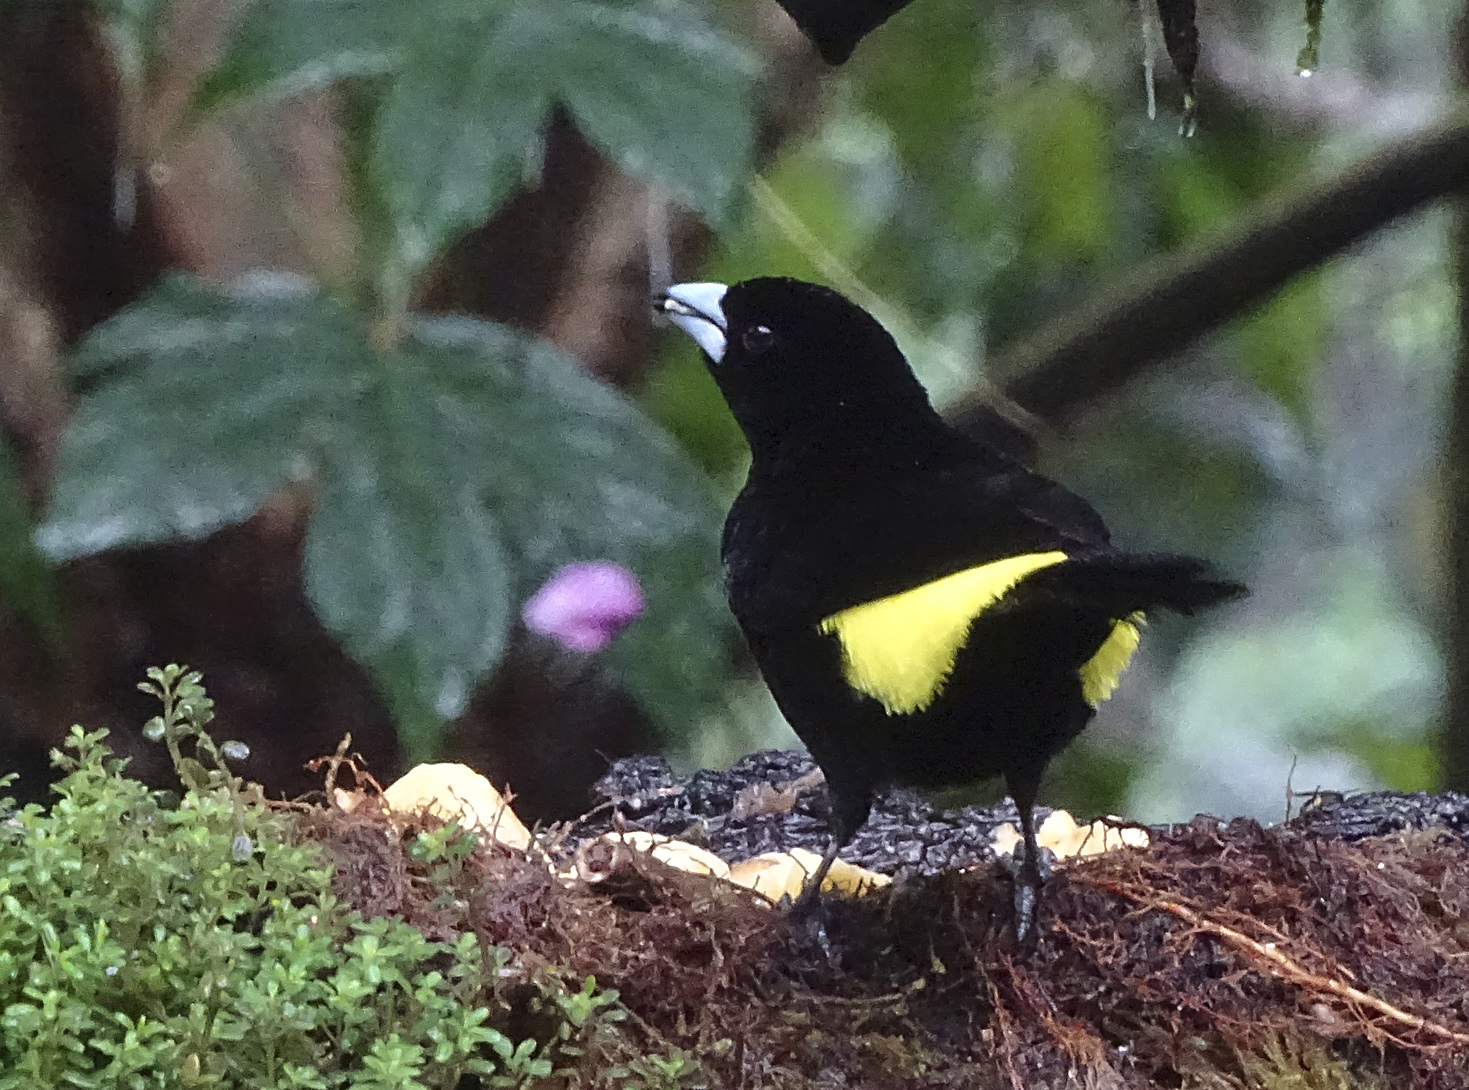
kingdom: Animalia
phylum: Chordata
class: Aves
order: Passeriformes
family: Thraupidae
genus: Ramphocelus
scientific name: Ramphocelus flammigerus
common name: Flame-rumped tanager
